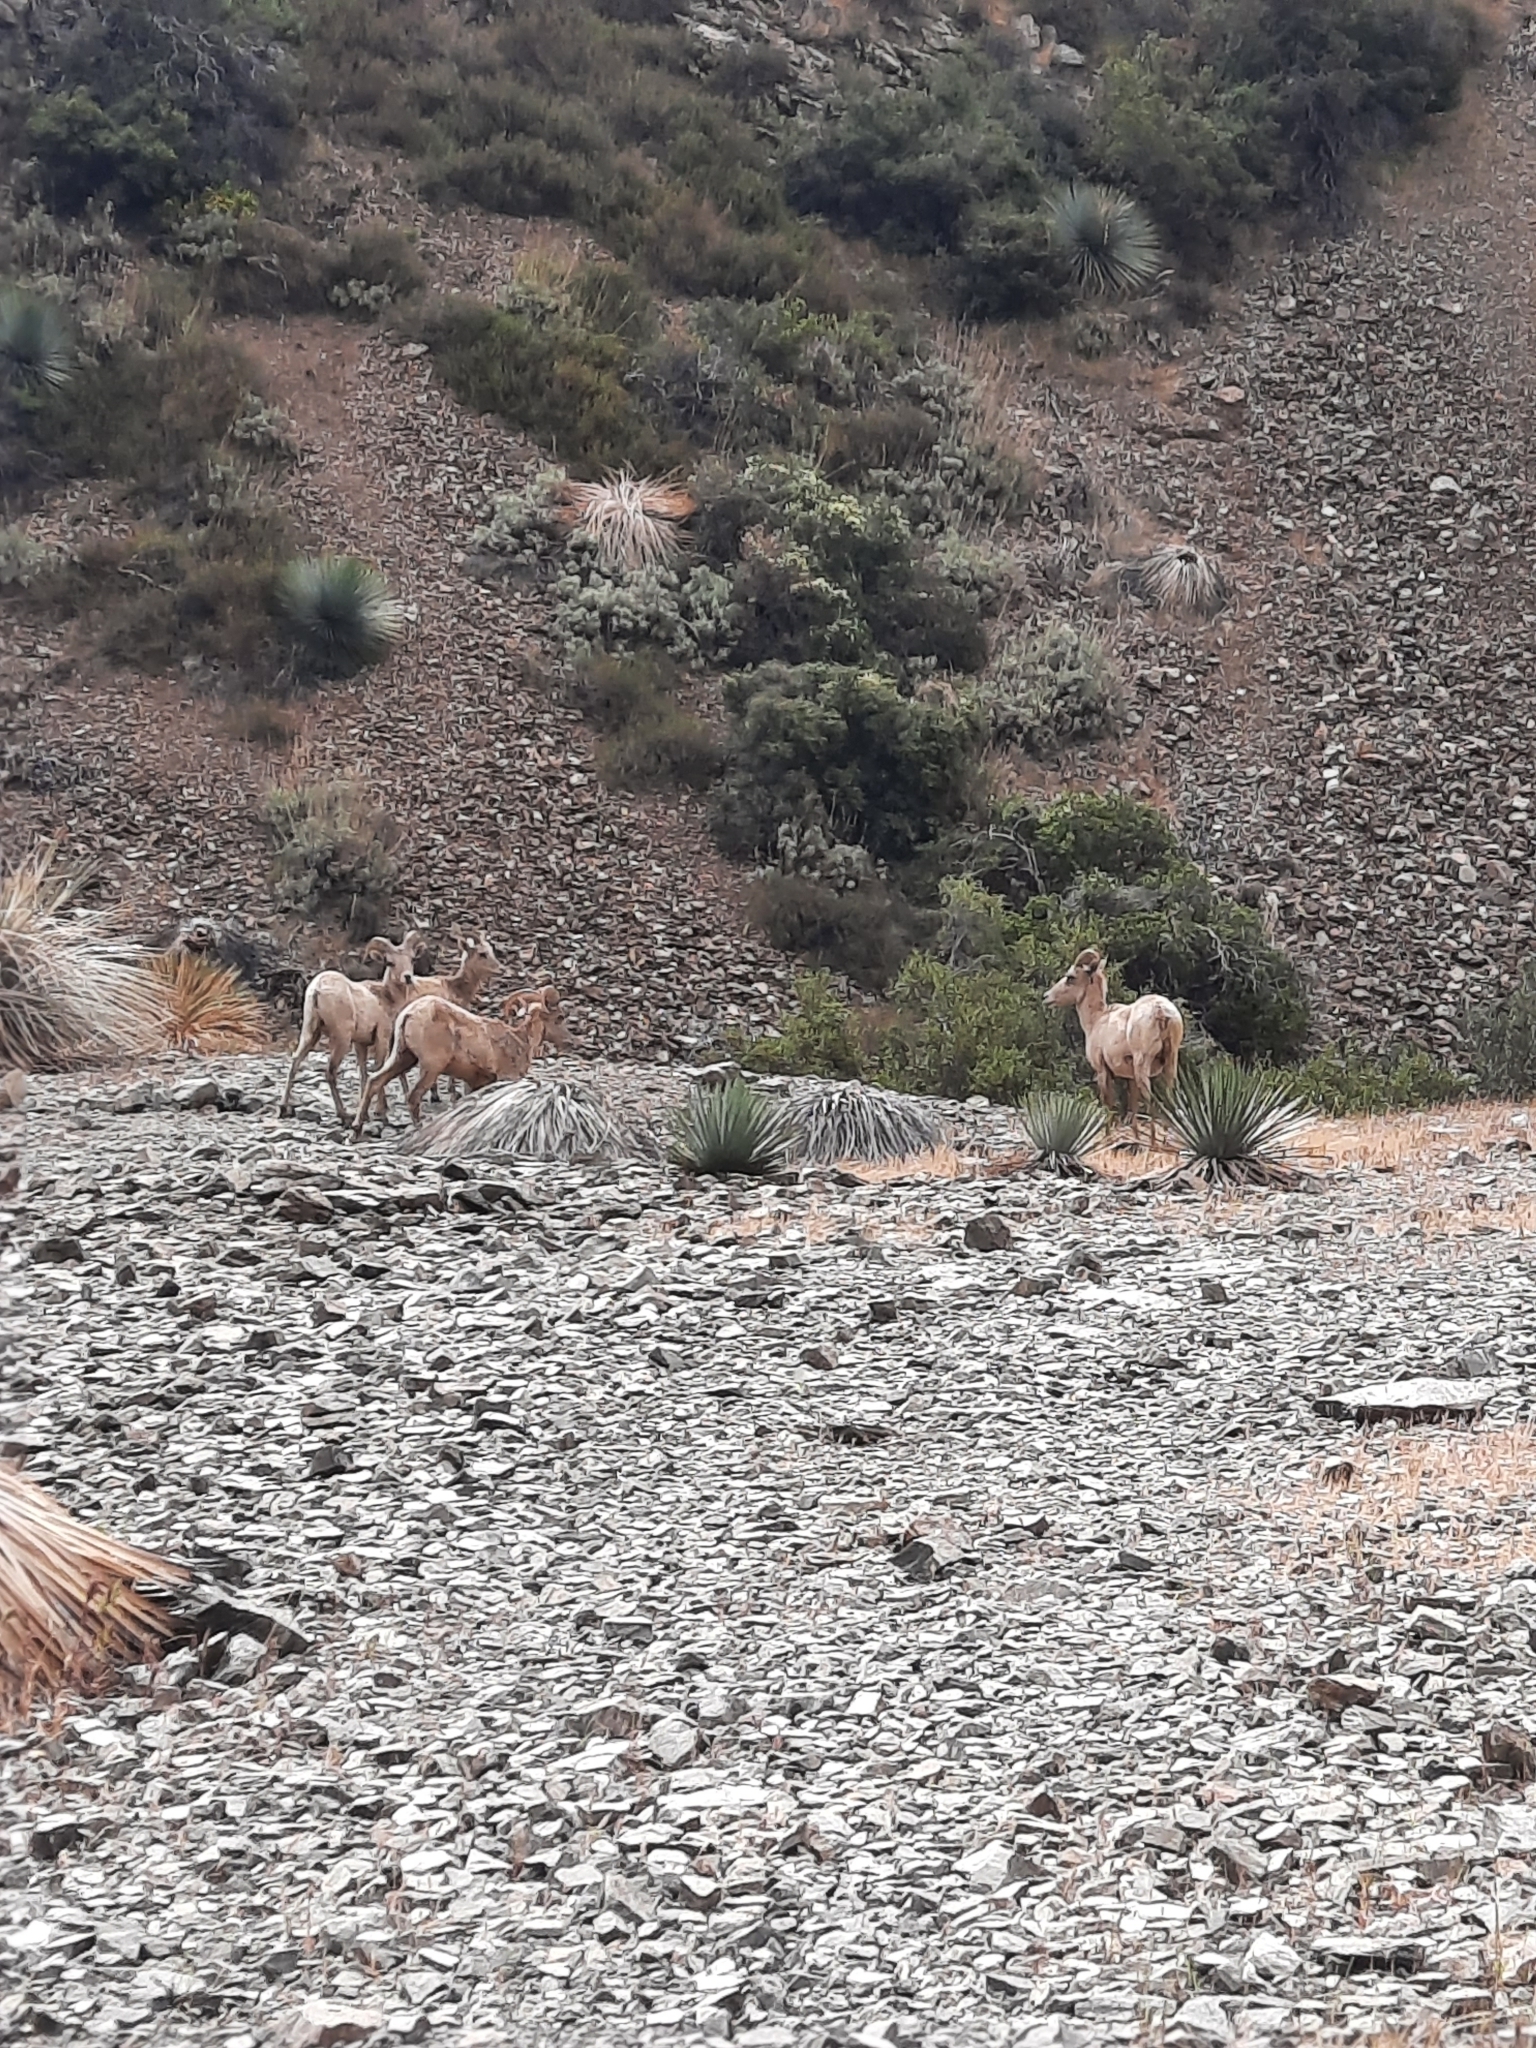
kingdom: Animalia
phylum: Chordata
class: Mammalia
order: Artiodactyla
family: Bovidae
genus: Ovis
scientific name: Ovis canadensis
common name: Bighorn sheep
